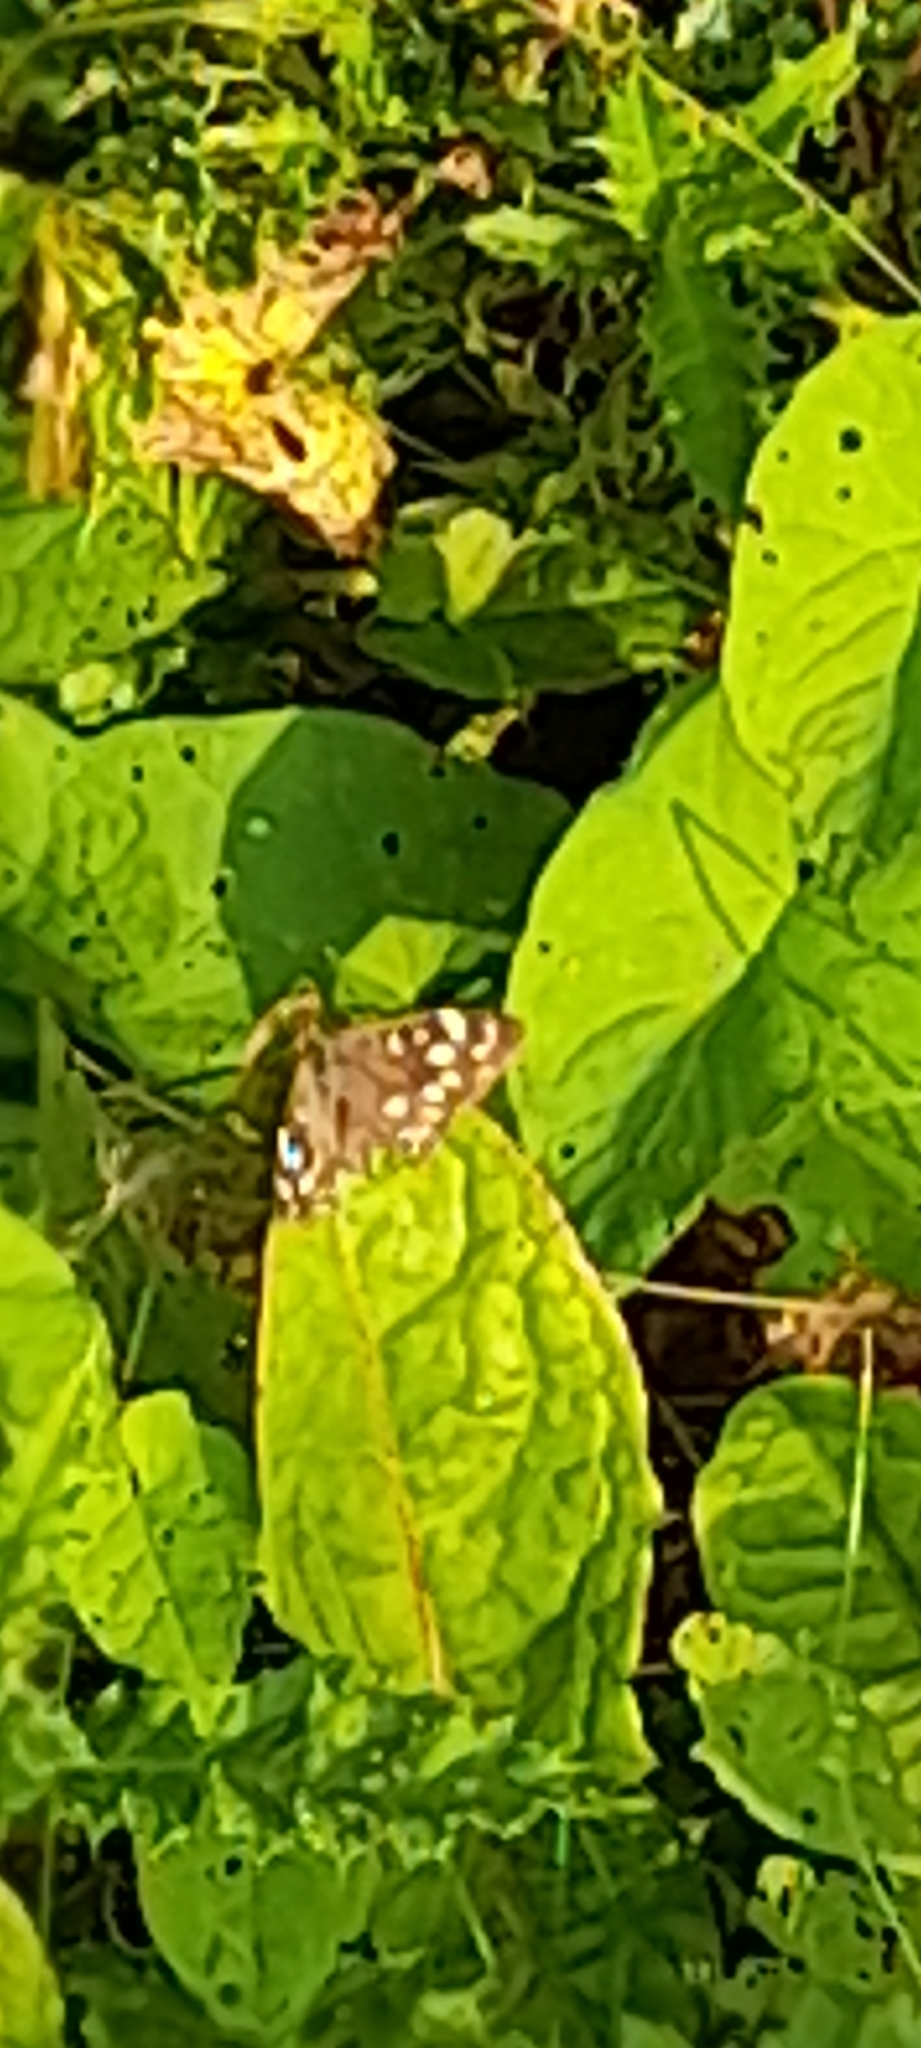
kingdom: Animalia
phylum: Arthropoda
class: Insecta
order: Lepidoptera
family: Nymphalidae
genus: Pararge
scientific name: Pararge aegeria
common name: Speckled wood
